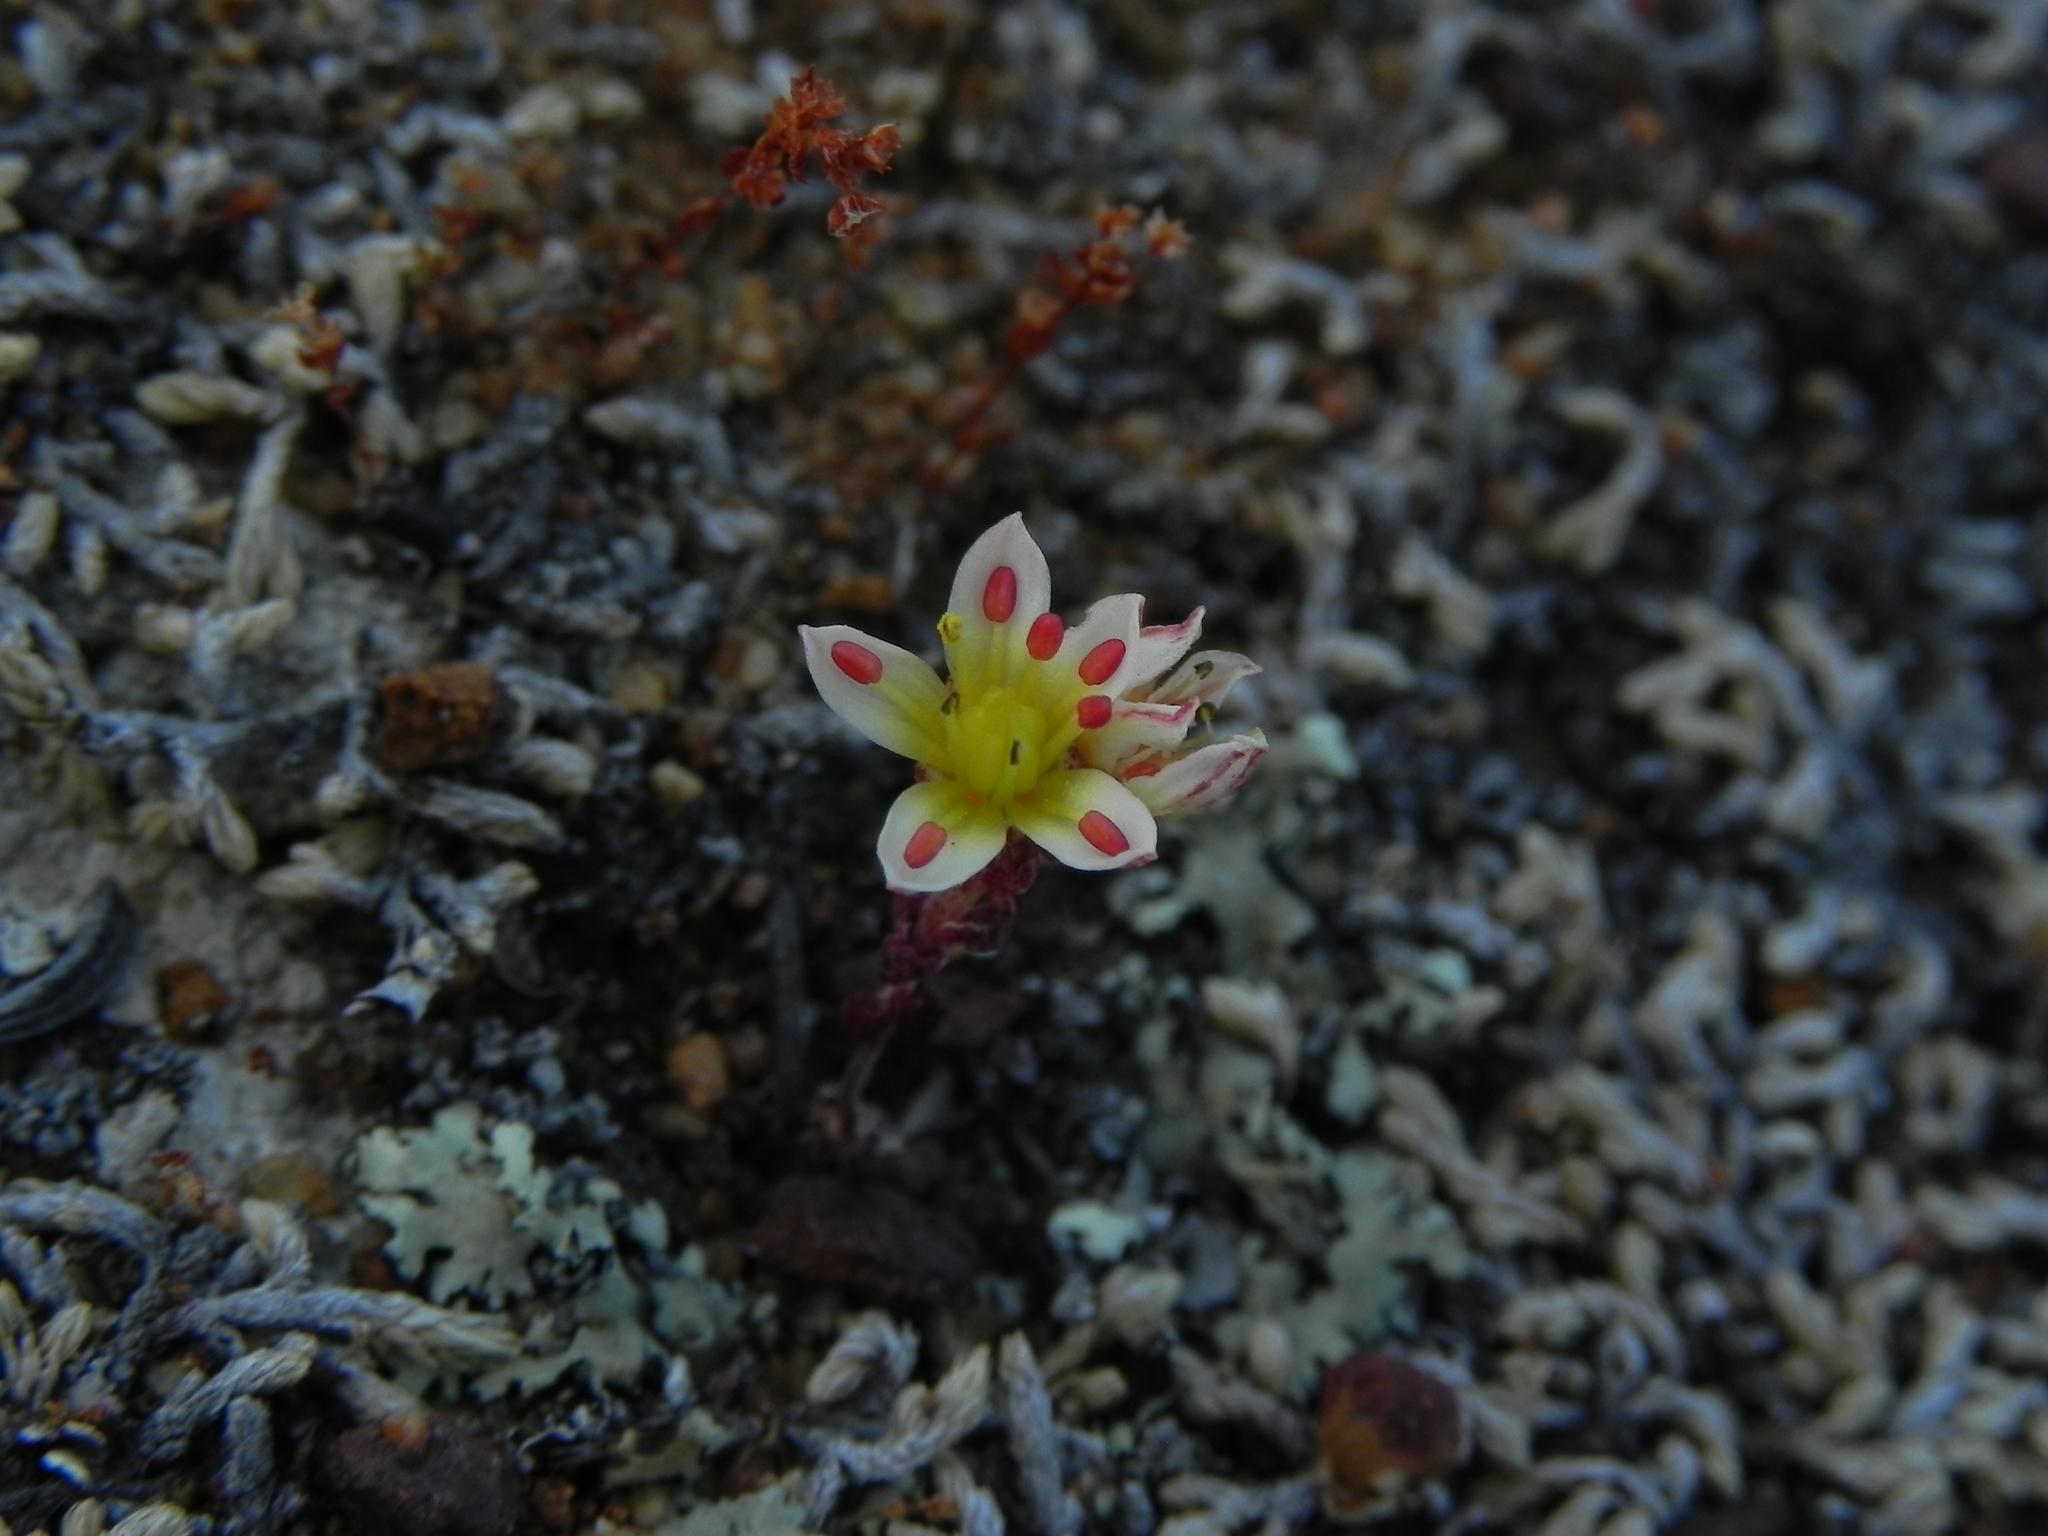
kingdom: Plantae
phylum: Tracheophyta
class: Magnoliopsida
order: Saxifragales
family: Crassulaceae
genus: Dudleya
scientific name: Dudleya blochmaniae
